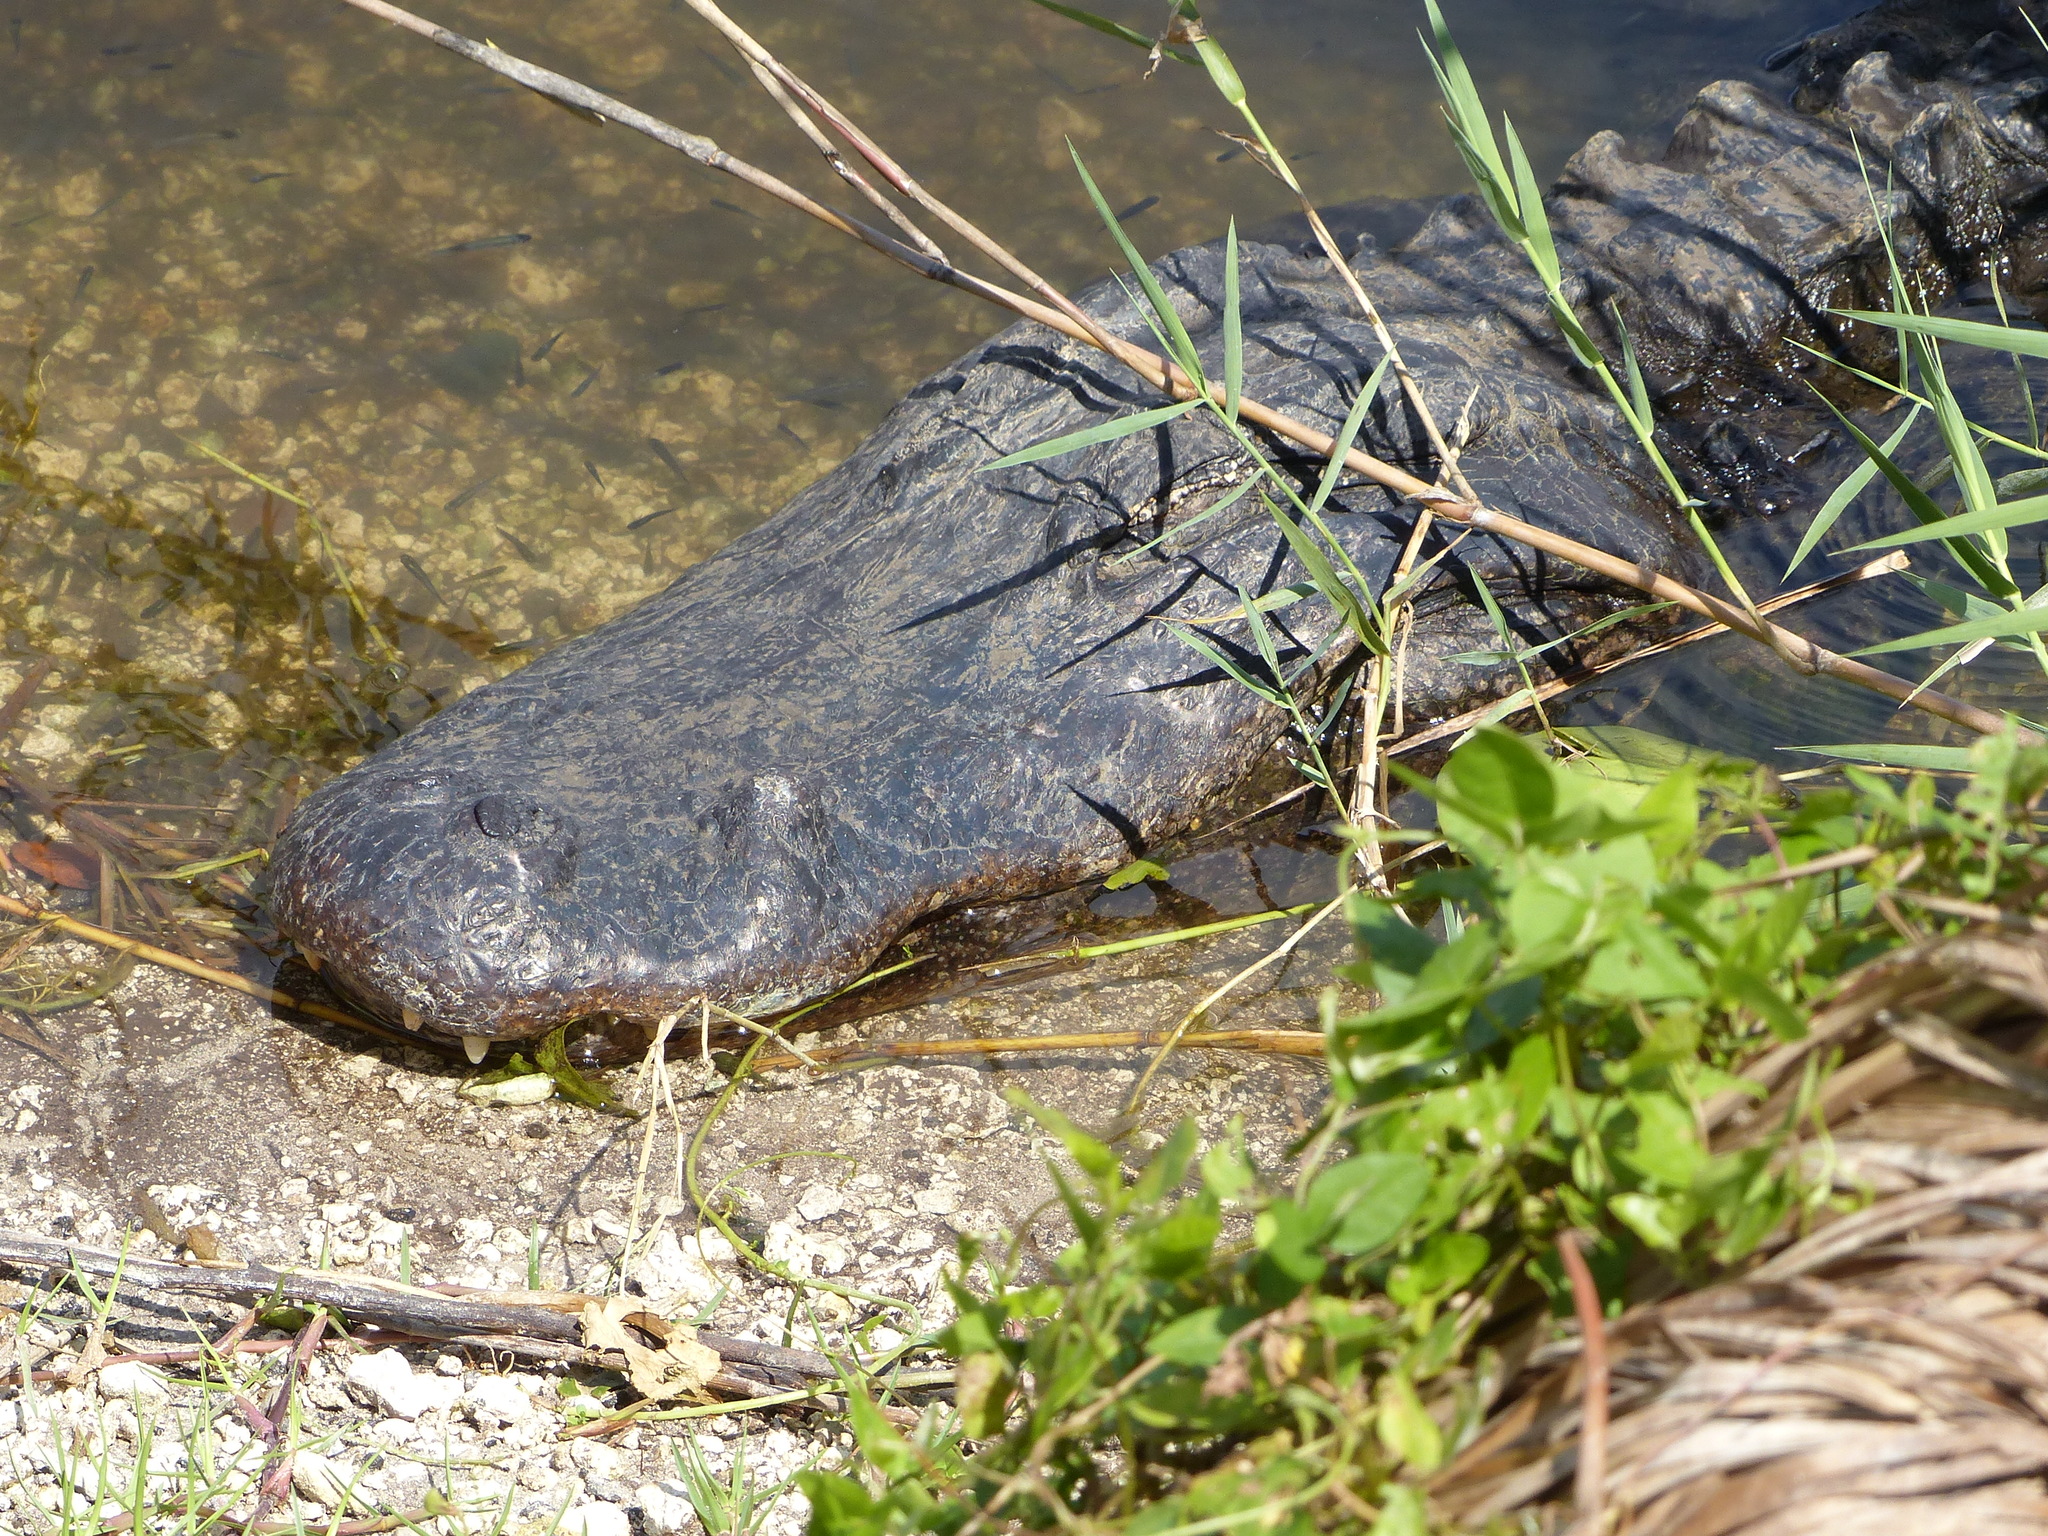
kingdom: Animalia
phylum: Chordata
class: Crocodylia
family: Alligatoridae
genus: Alligator
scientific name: Alligator mississippiensis
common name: American alligator
